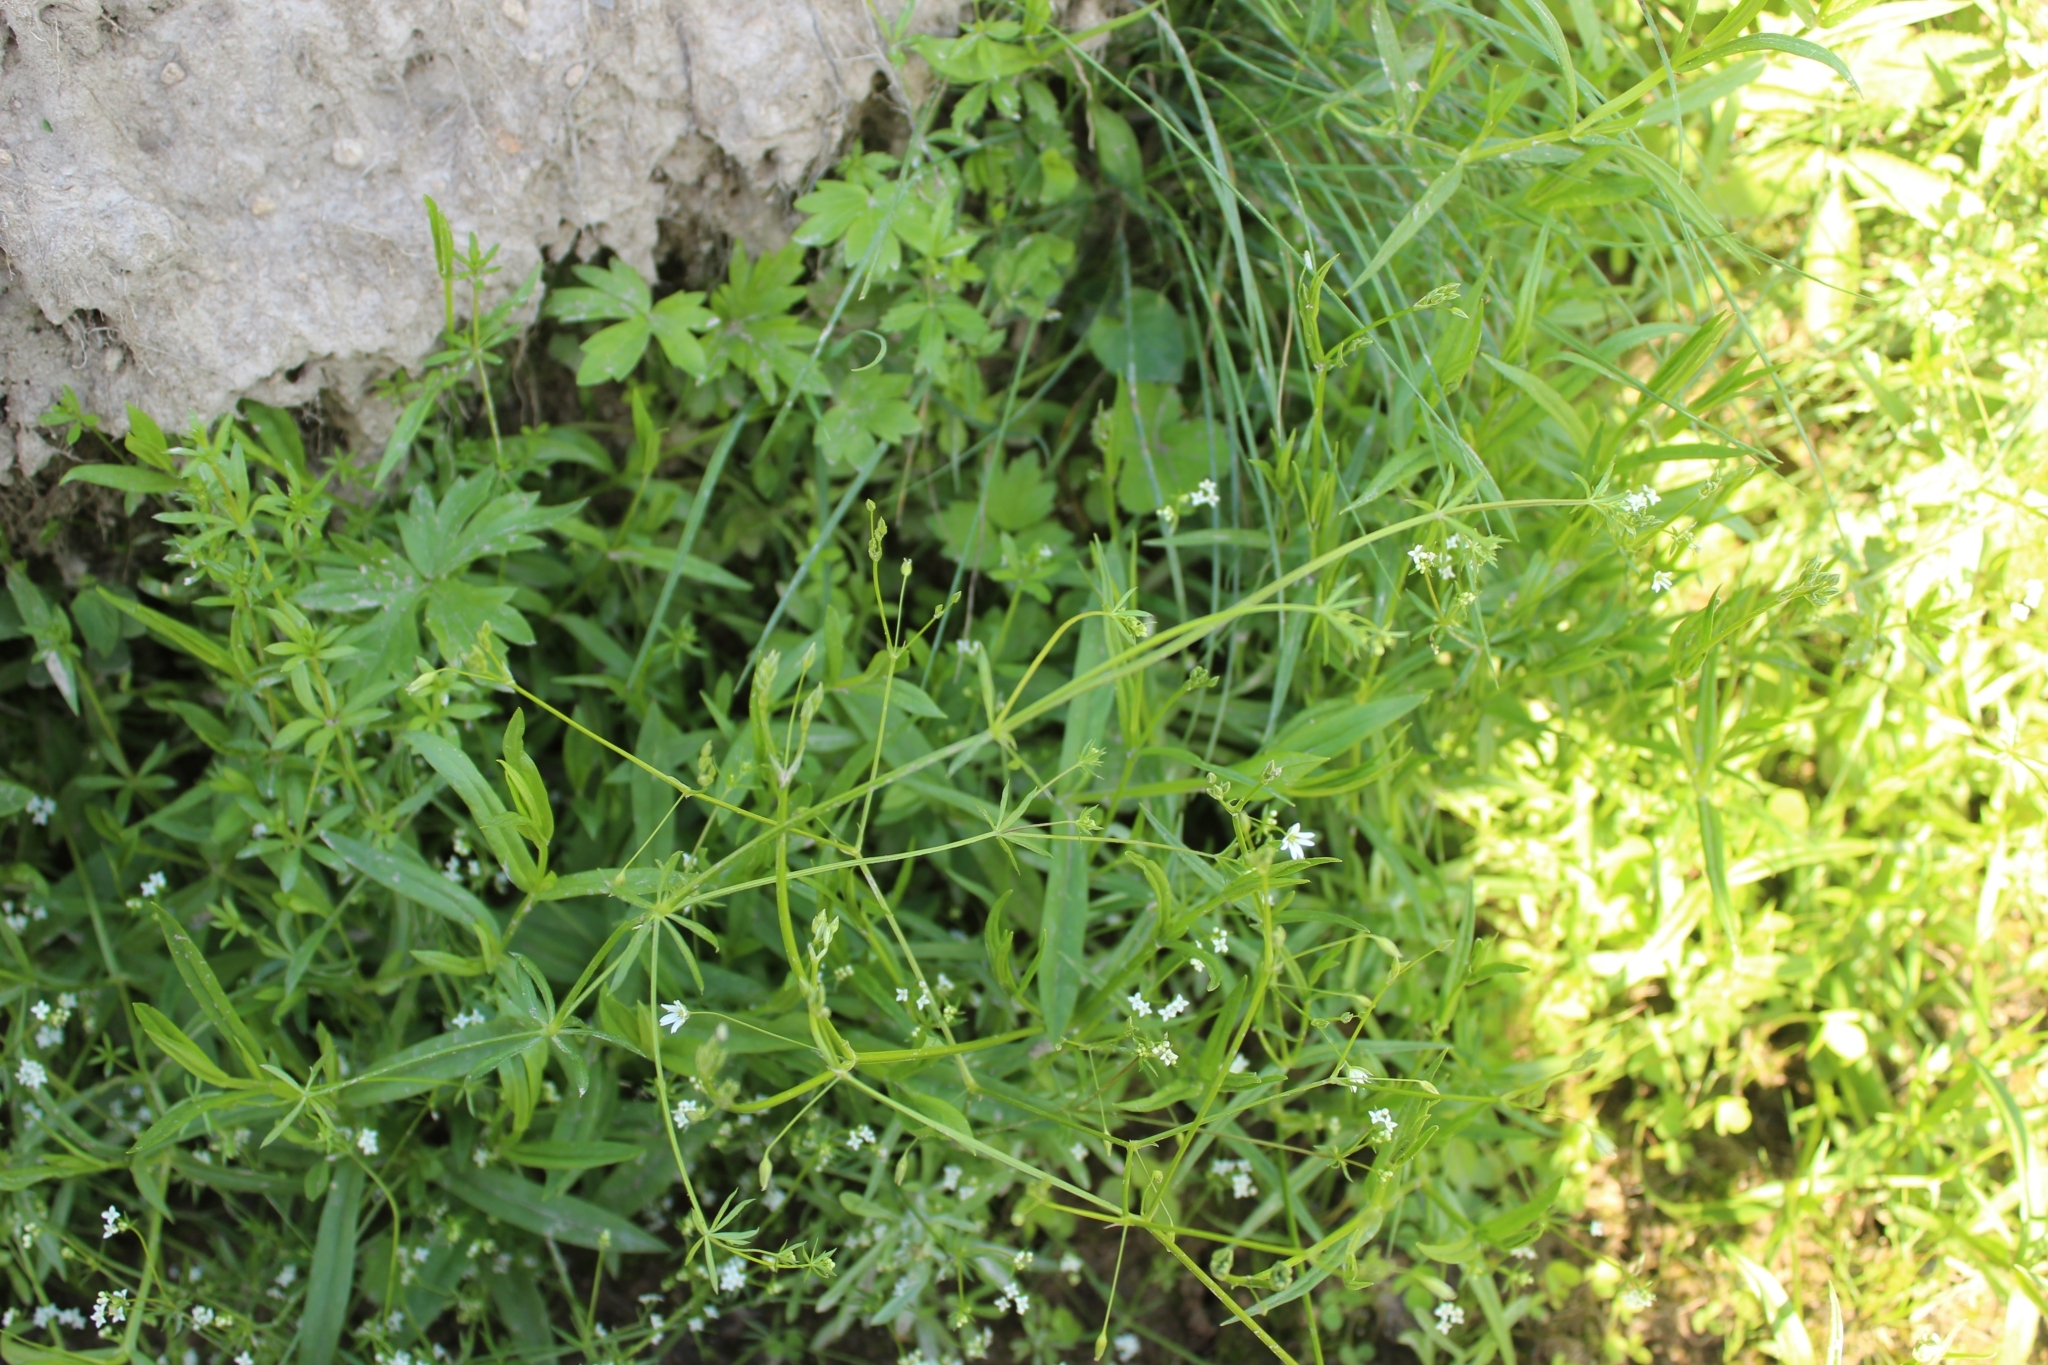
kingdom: Plantae
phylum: Tracheophyta
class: Magnoliopsida
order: Gentianales
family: Rubiaceae
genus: Galium
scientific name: Galium uliginosum
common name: Fen bedstraw
